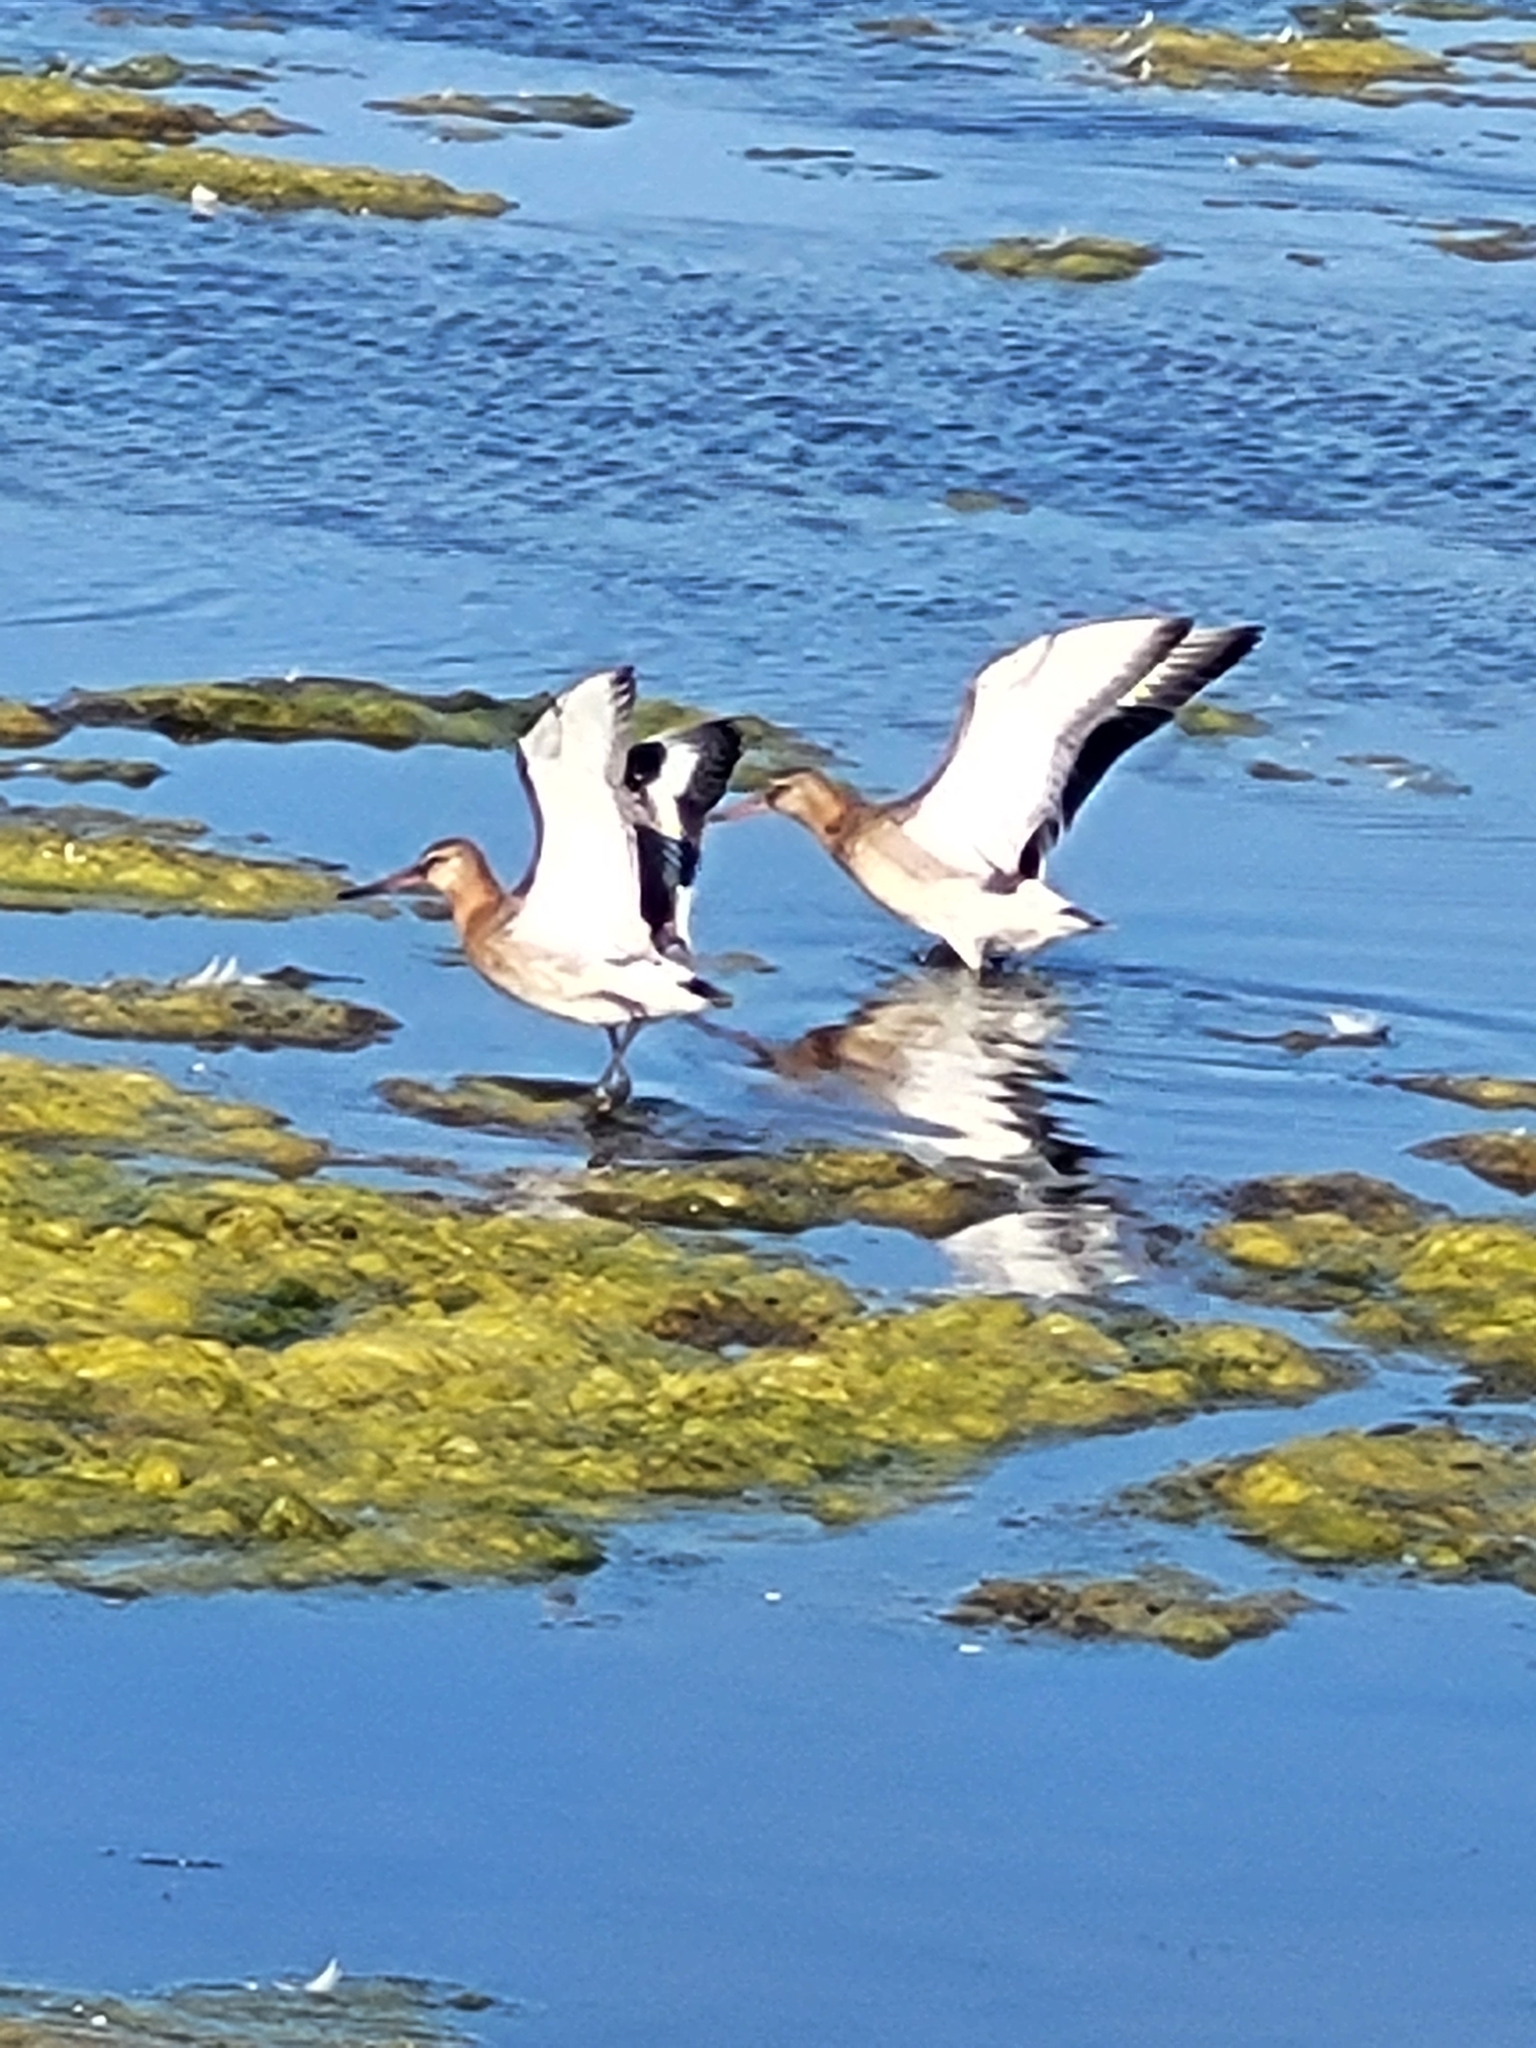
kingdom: Animalia
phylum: Chordata
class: Aves
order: Charadriiformes
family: Scolopacidae
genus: Limosa
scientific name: Limosa limosa
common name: Black-tailed godwit
